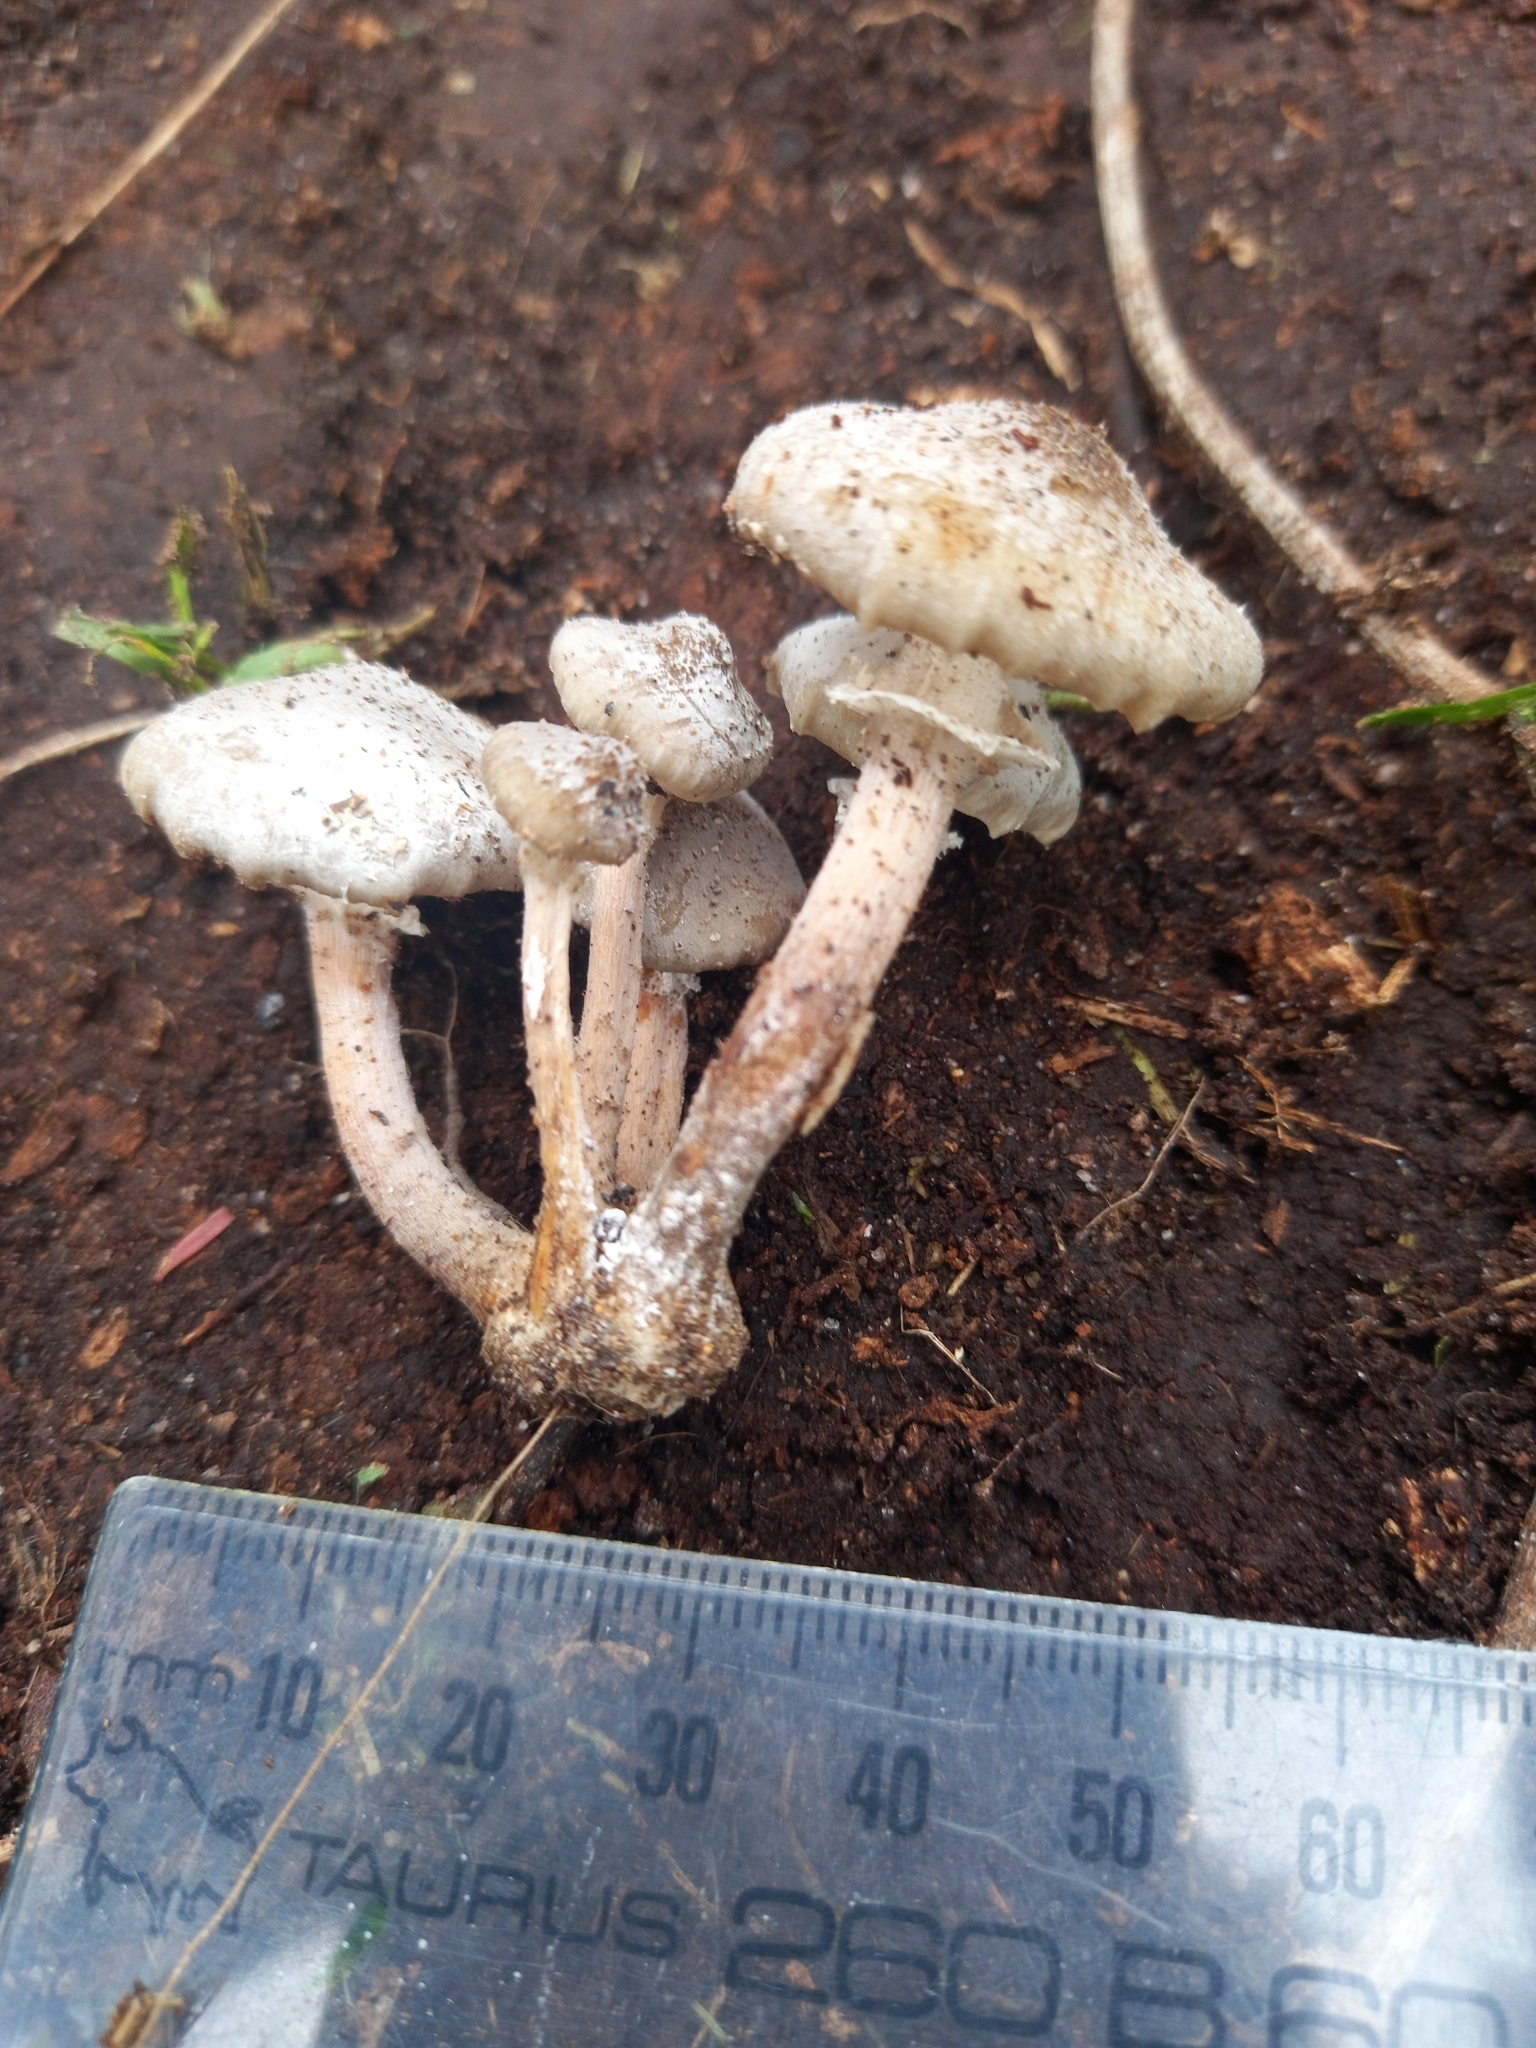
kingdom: Fungi
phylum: Basidiomycota
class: Agaricomycetes
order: Agaricales
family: Physalacriaceae
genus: Armillaria
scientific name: Armillaria novae-zelandiae
